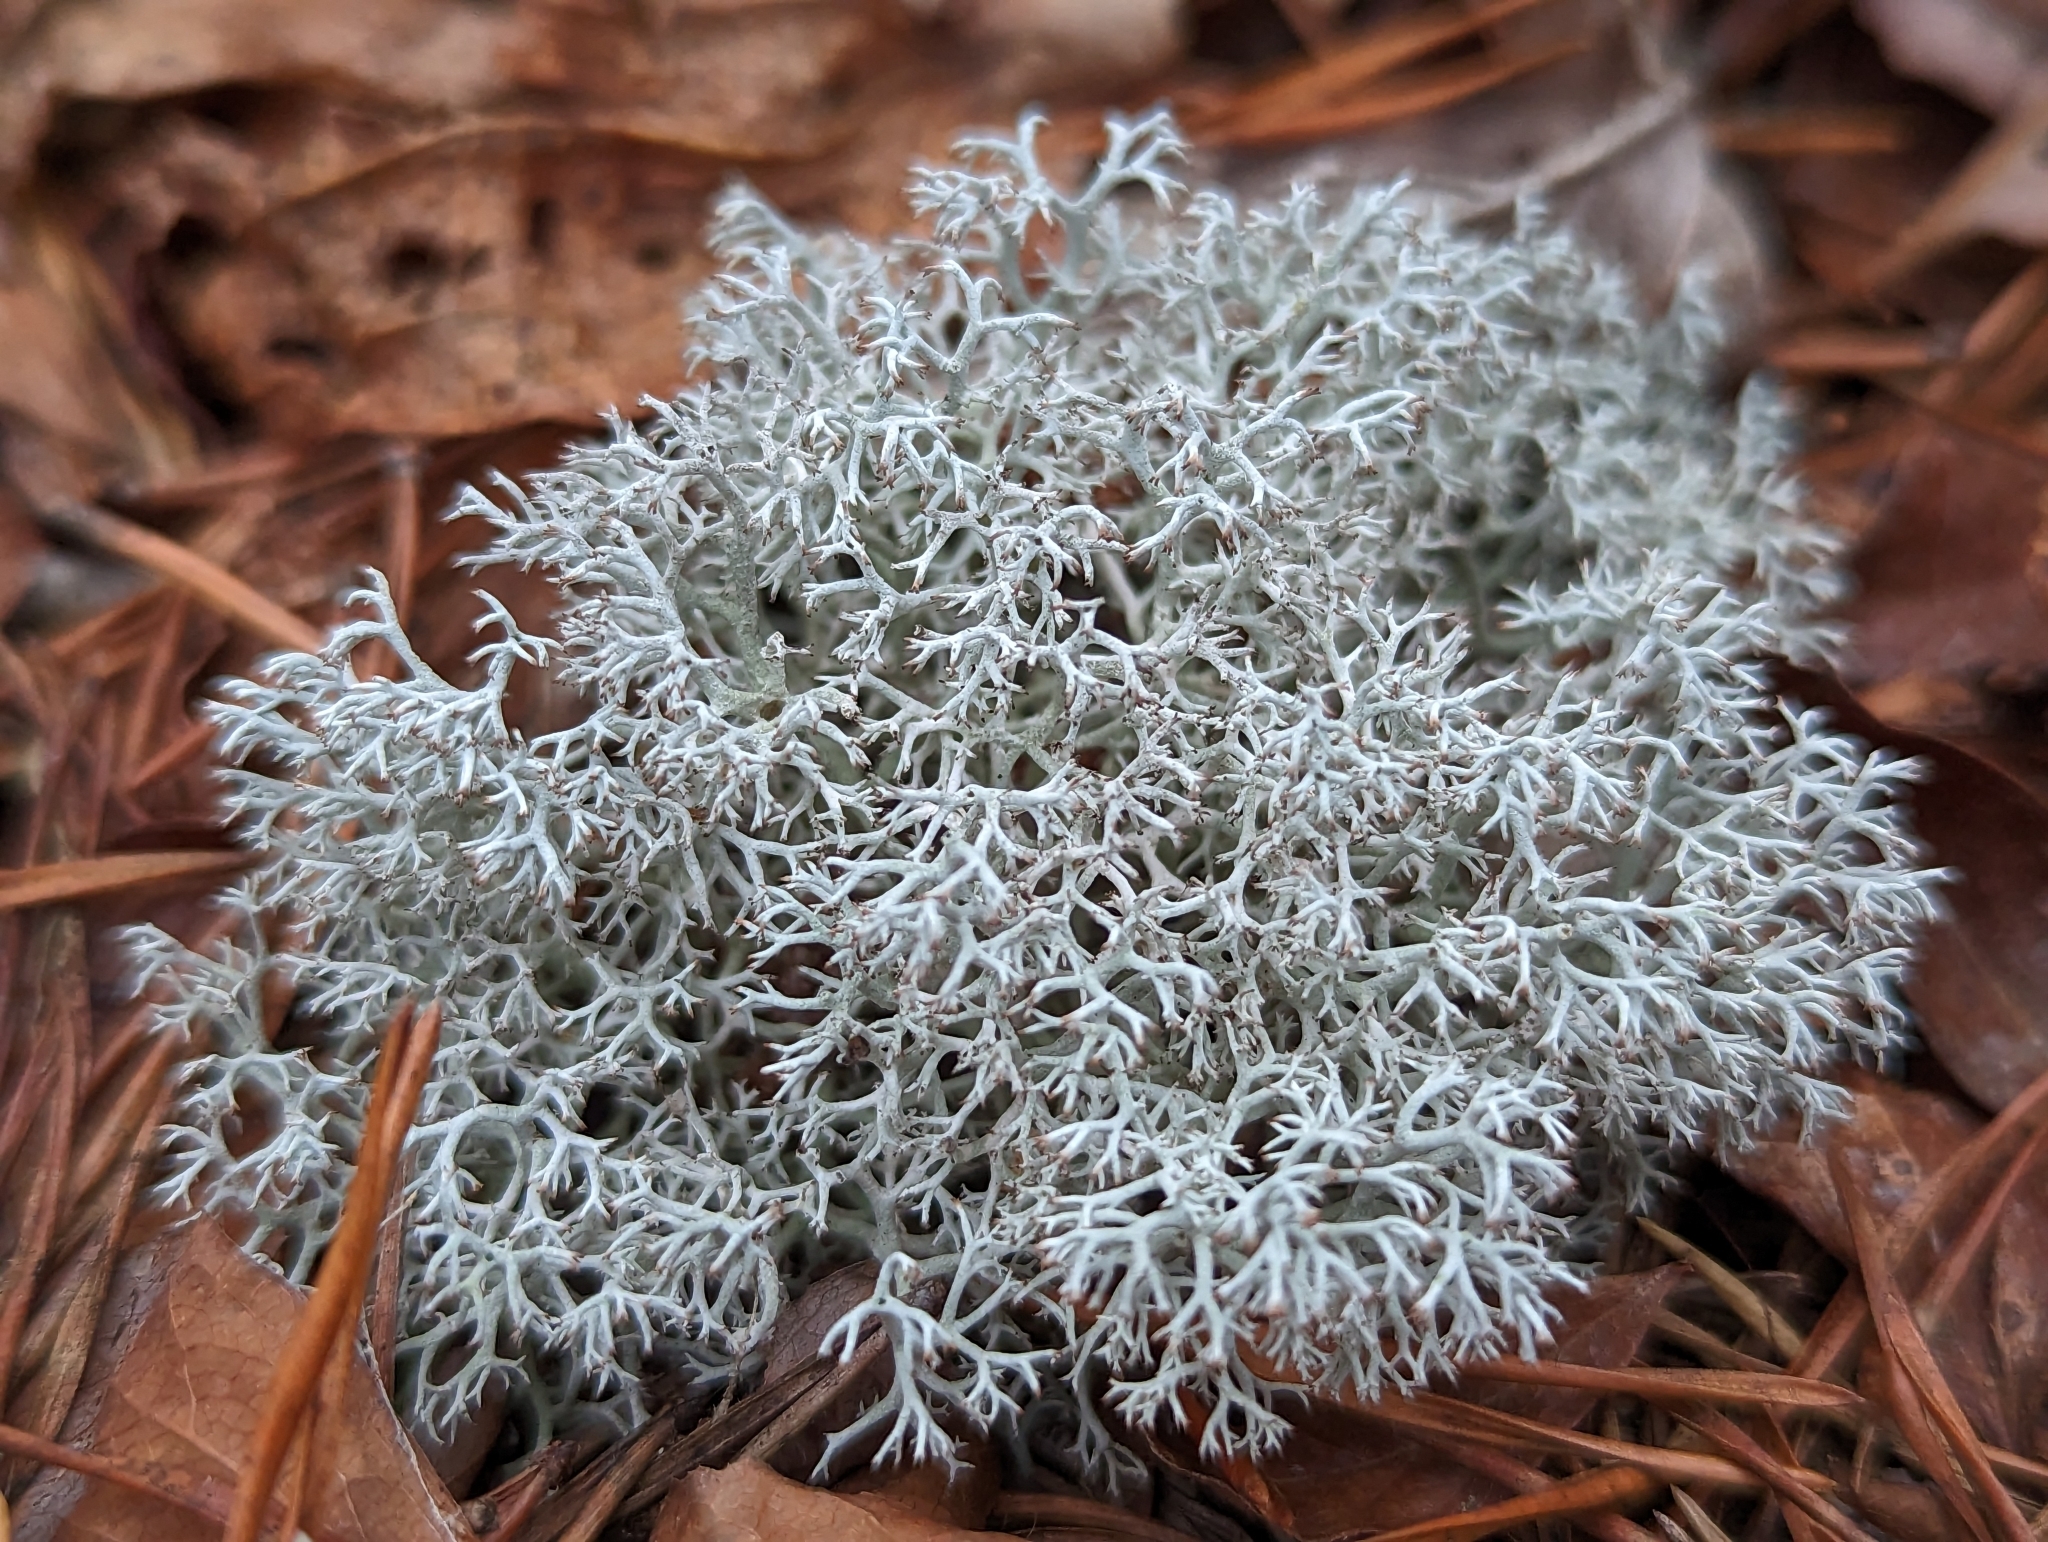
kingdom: Fungi
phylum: Ascomycota
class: Lecanoromycetes
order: Lecanorales
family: Cladoniaceae
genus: Cladonia
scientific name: Cladonia rangiferina
